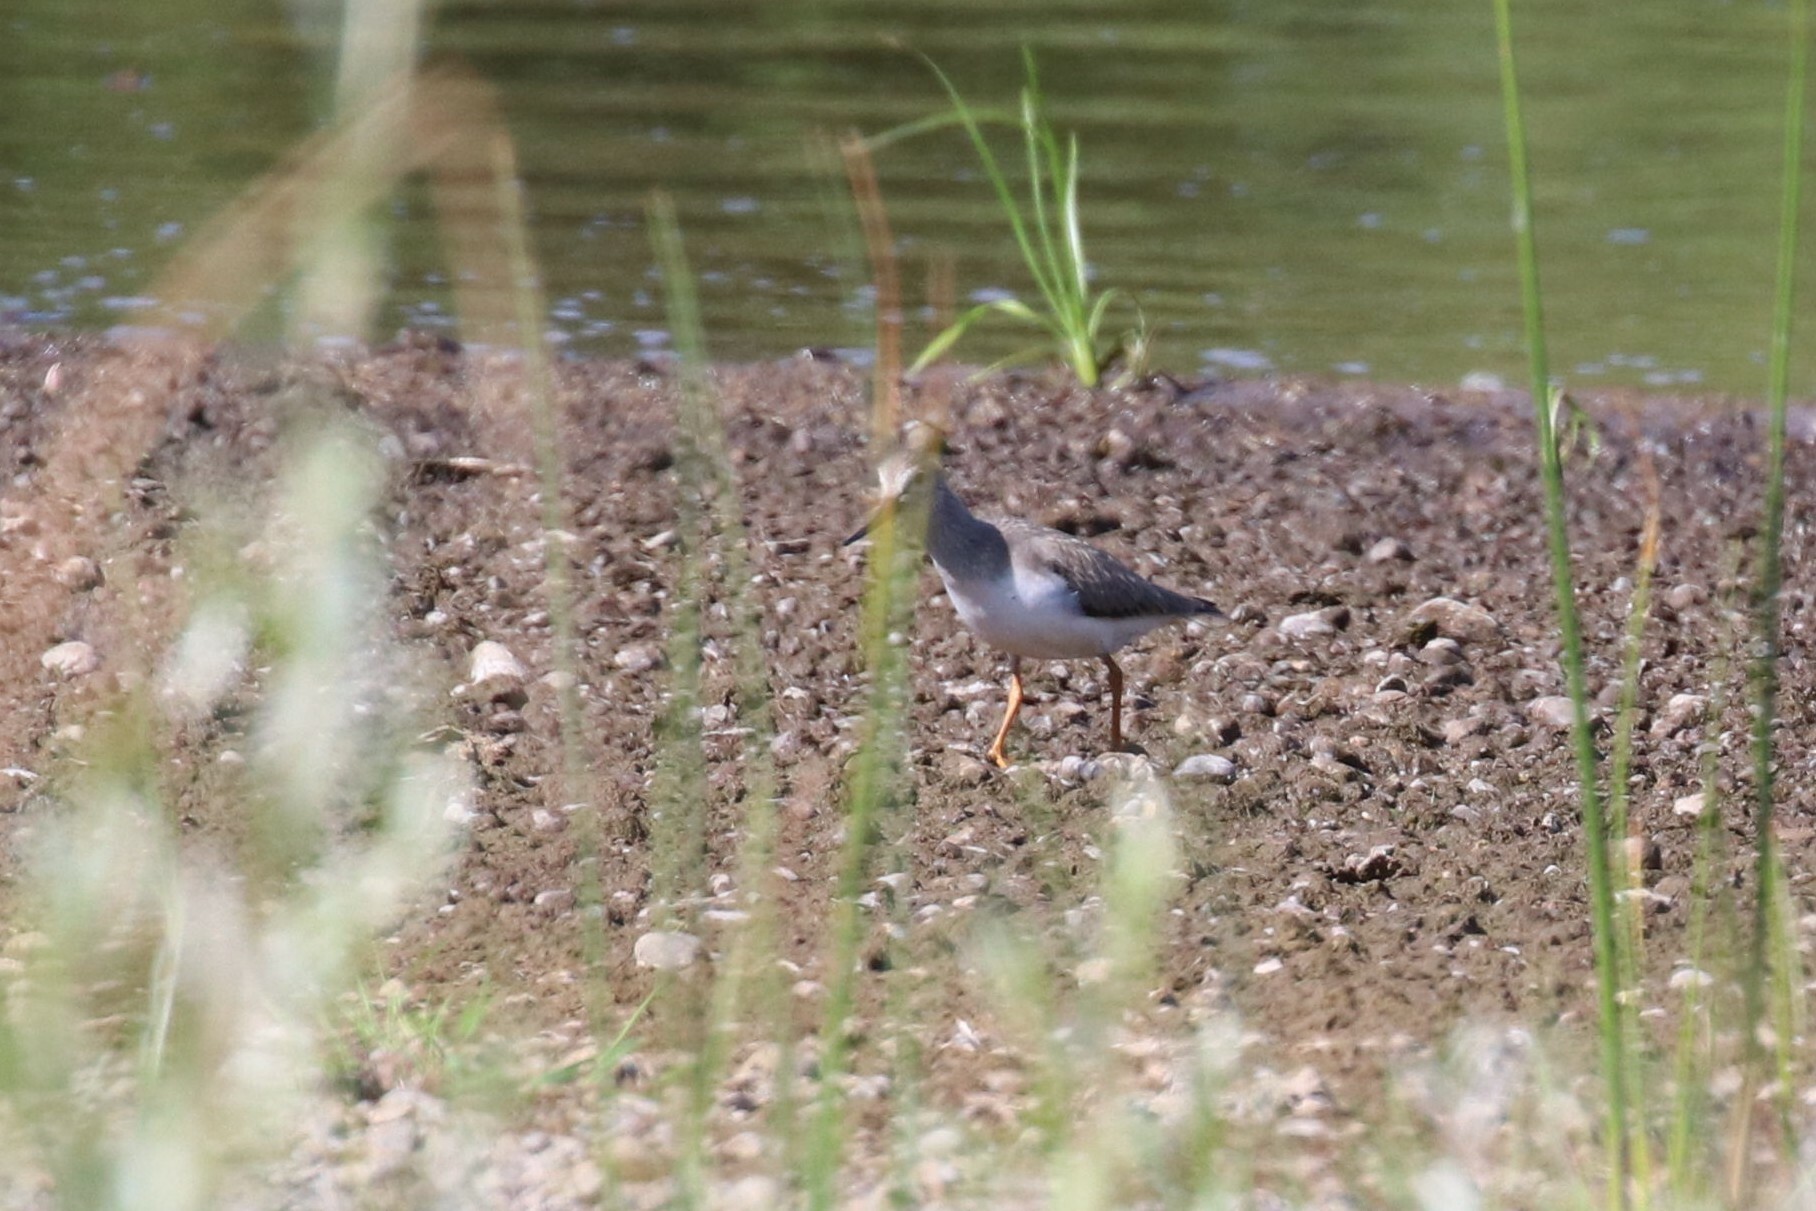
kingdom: Animalia
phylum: Chordata
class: Aves
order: Charadriiformes
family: Scolopacidae
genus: Xenus
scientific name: Xenus cinereus
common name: Terek sandpiper
